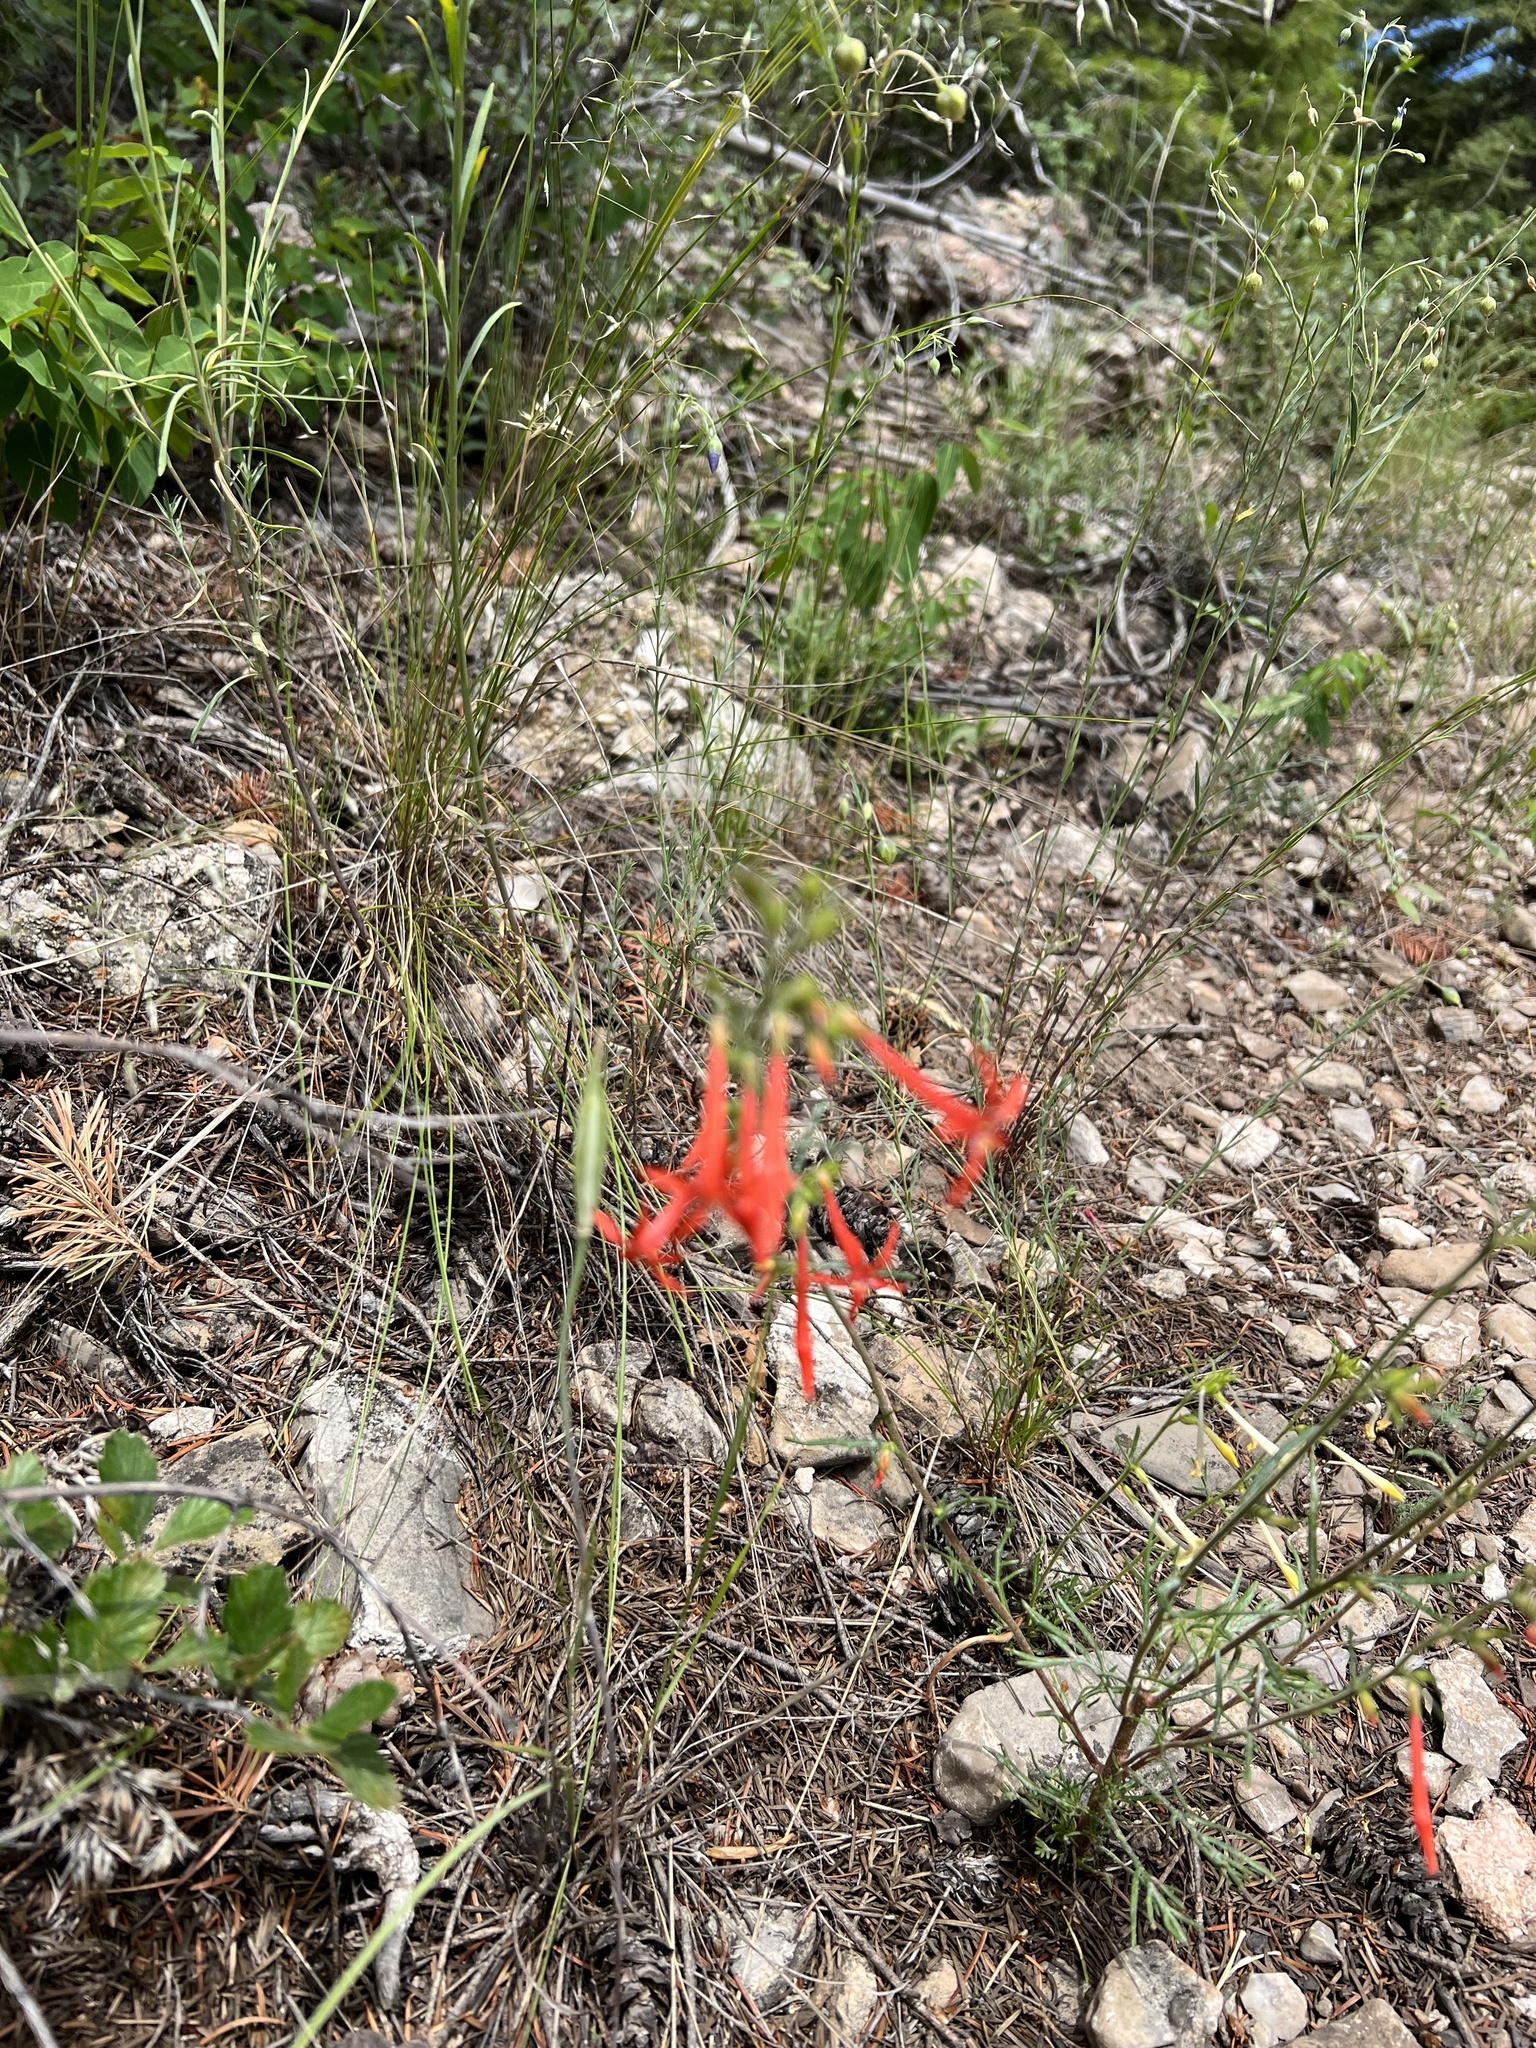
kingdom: Plantae
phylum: Tracheophyta
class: Magnoliopsida
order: Ericales
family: Polemoniaceae
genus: Ipomopsis
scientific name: Ipomopsis aggregata
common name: Scarlet gilia
